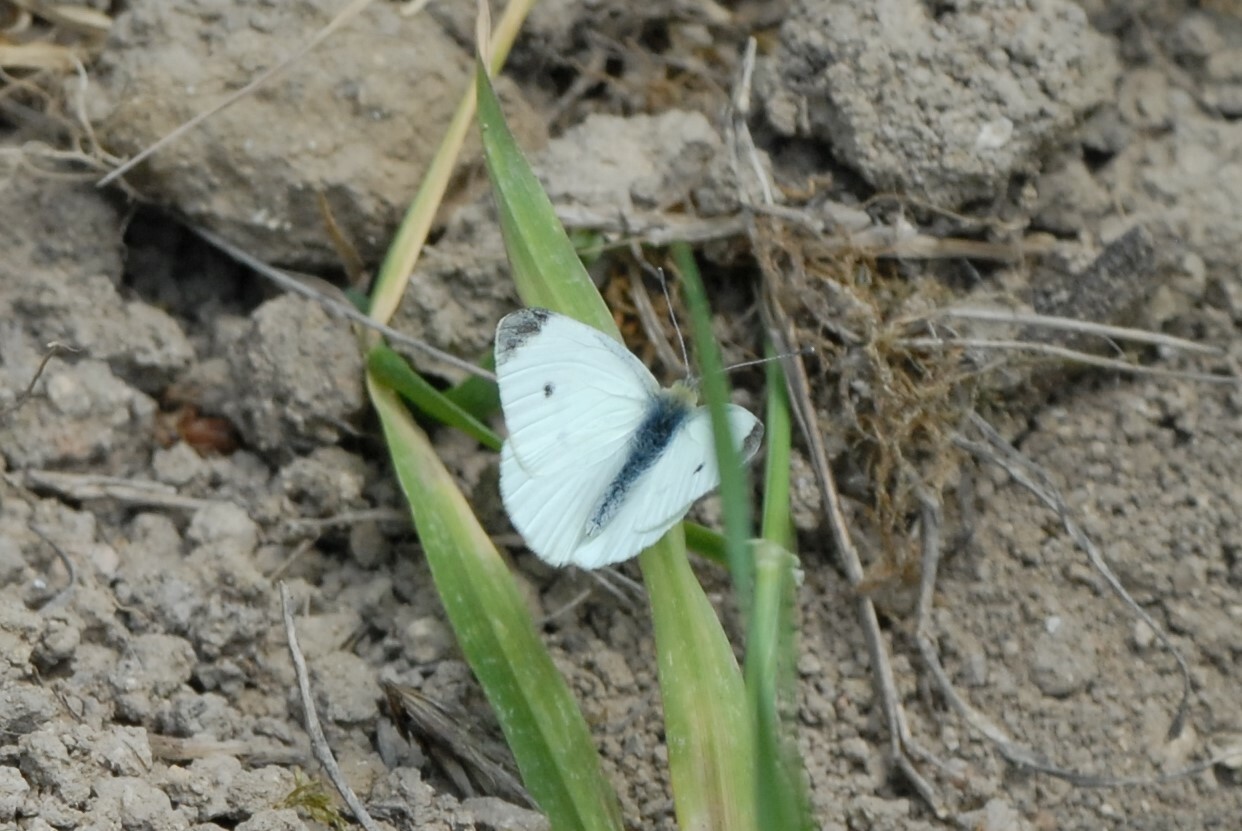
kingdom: Animalia
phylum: Arthropoda
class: Insecta
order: Lepidoptera
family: Pieridae
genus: Pieris
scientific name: Pieris rapae
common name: Small white
